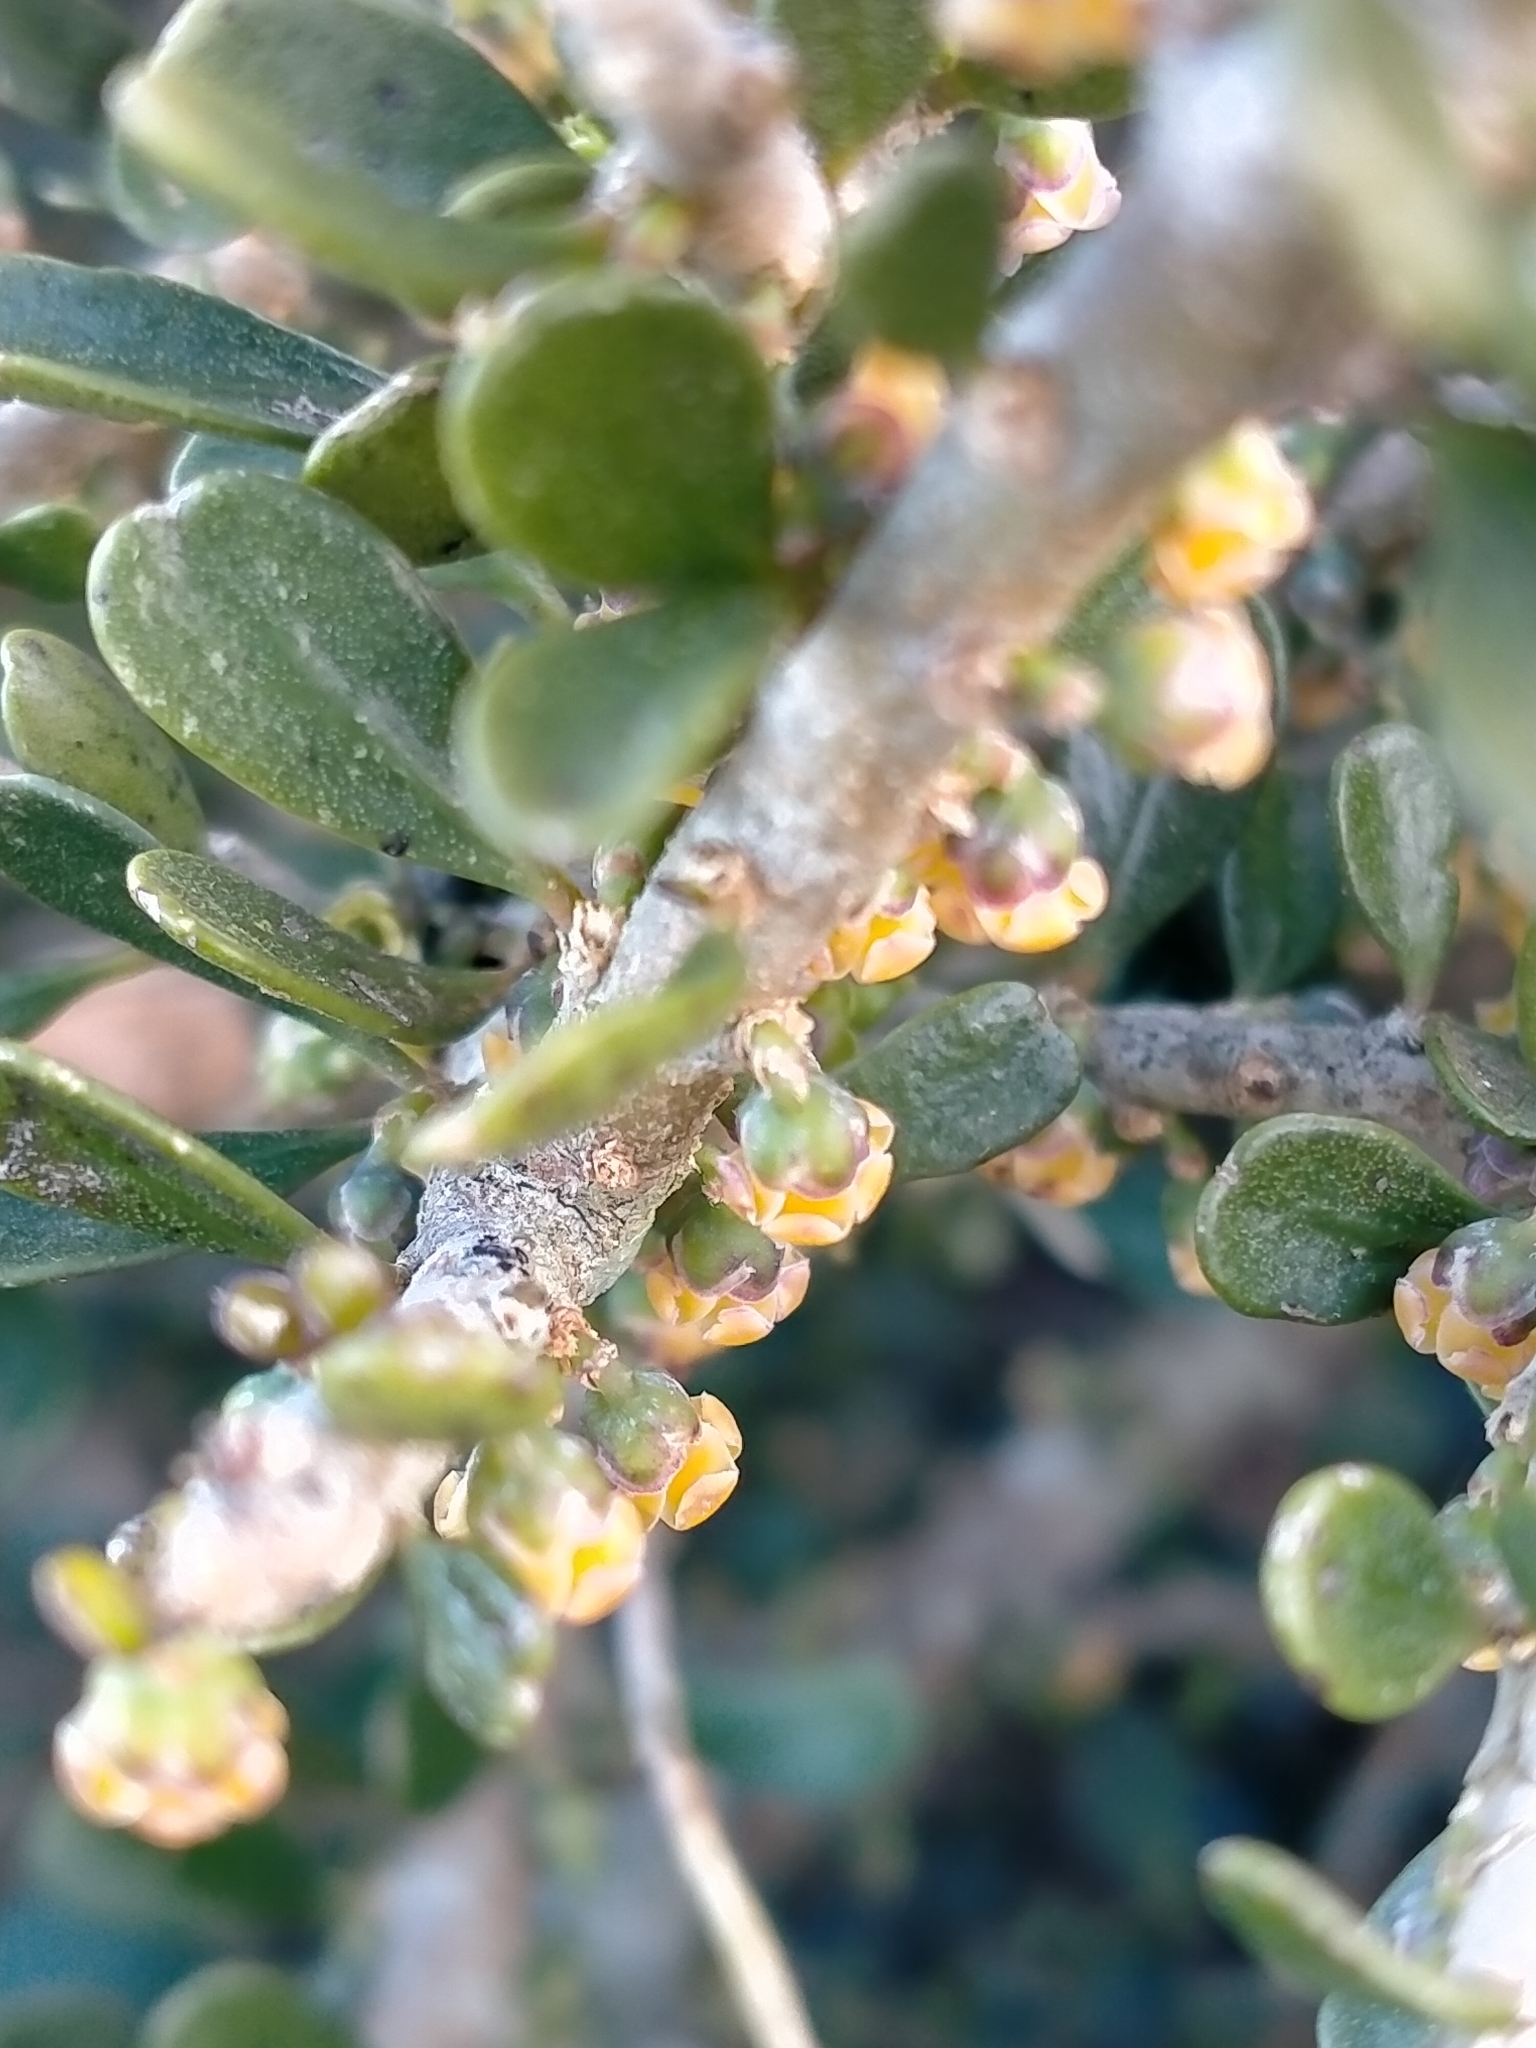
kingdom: Plantae
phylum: Tracheophyta
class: Magnoliopsida
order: Malpighiales
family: Violaceae
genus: Melicytus
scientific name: Melicytus crassifolius
